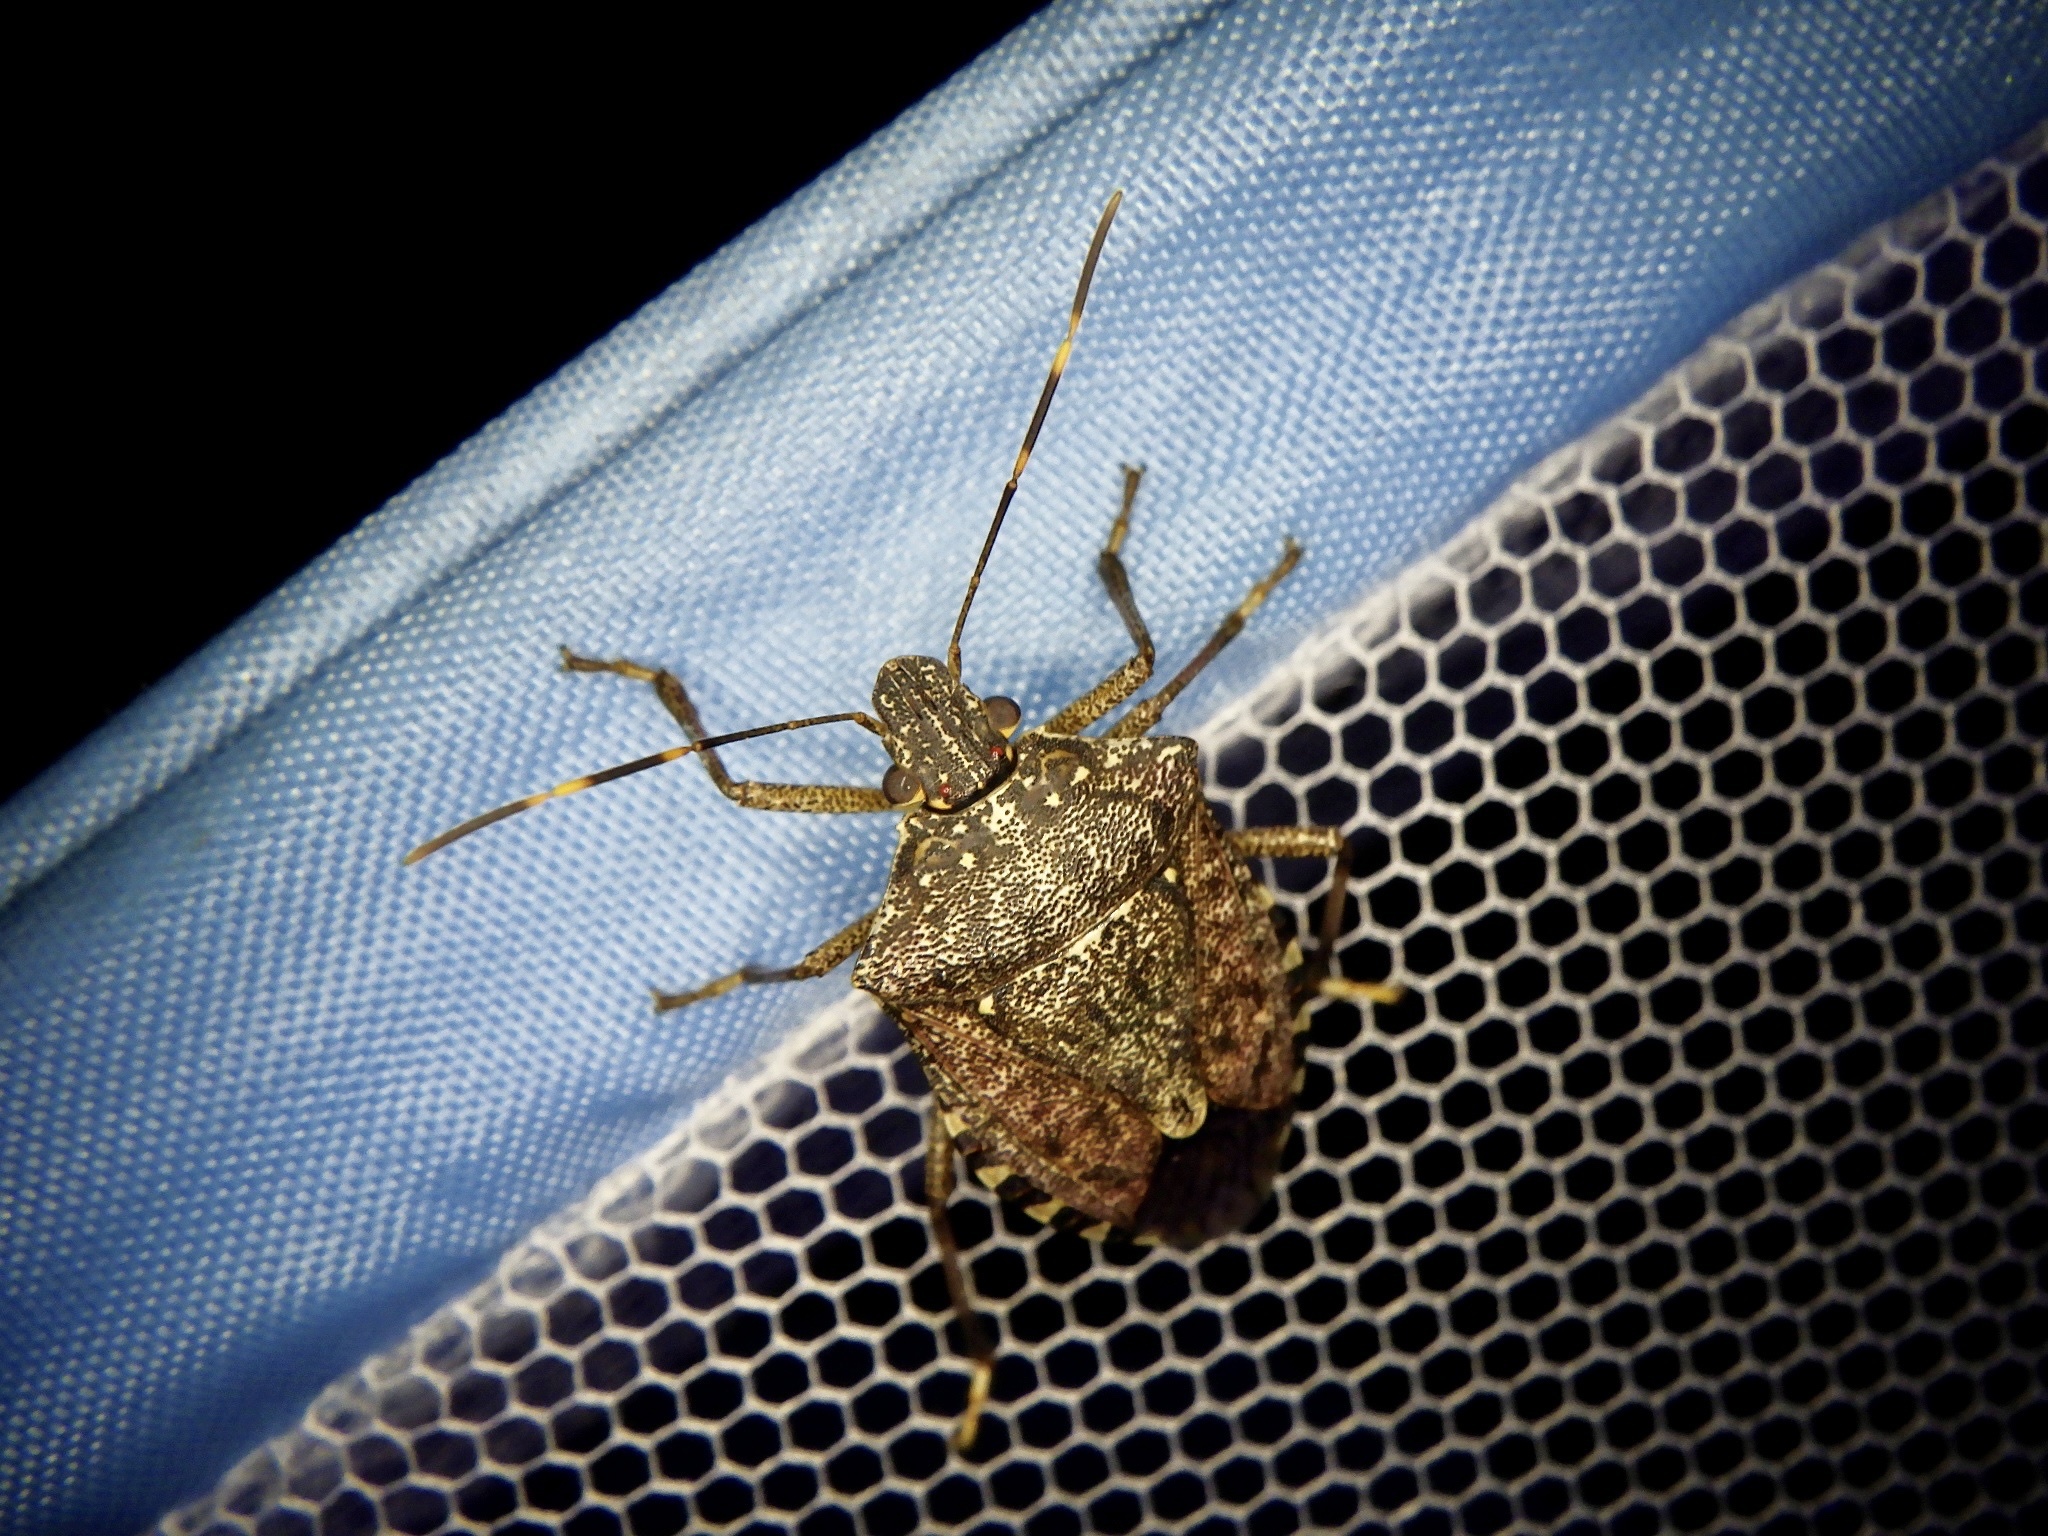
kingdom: Animalia
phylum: Arthropoda
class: Insecta
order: Hemiptera
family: Pentatomidae
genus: Halyomorpha
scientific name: Halyomorpha halys
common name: Brown marmorated stink bug
